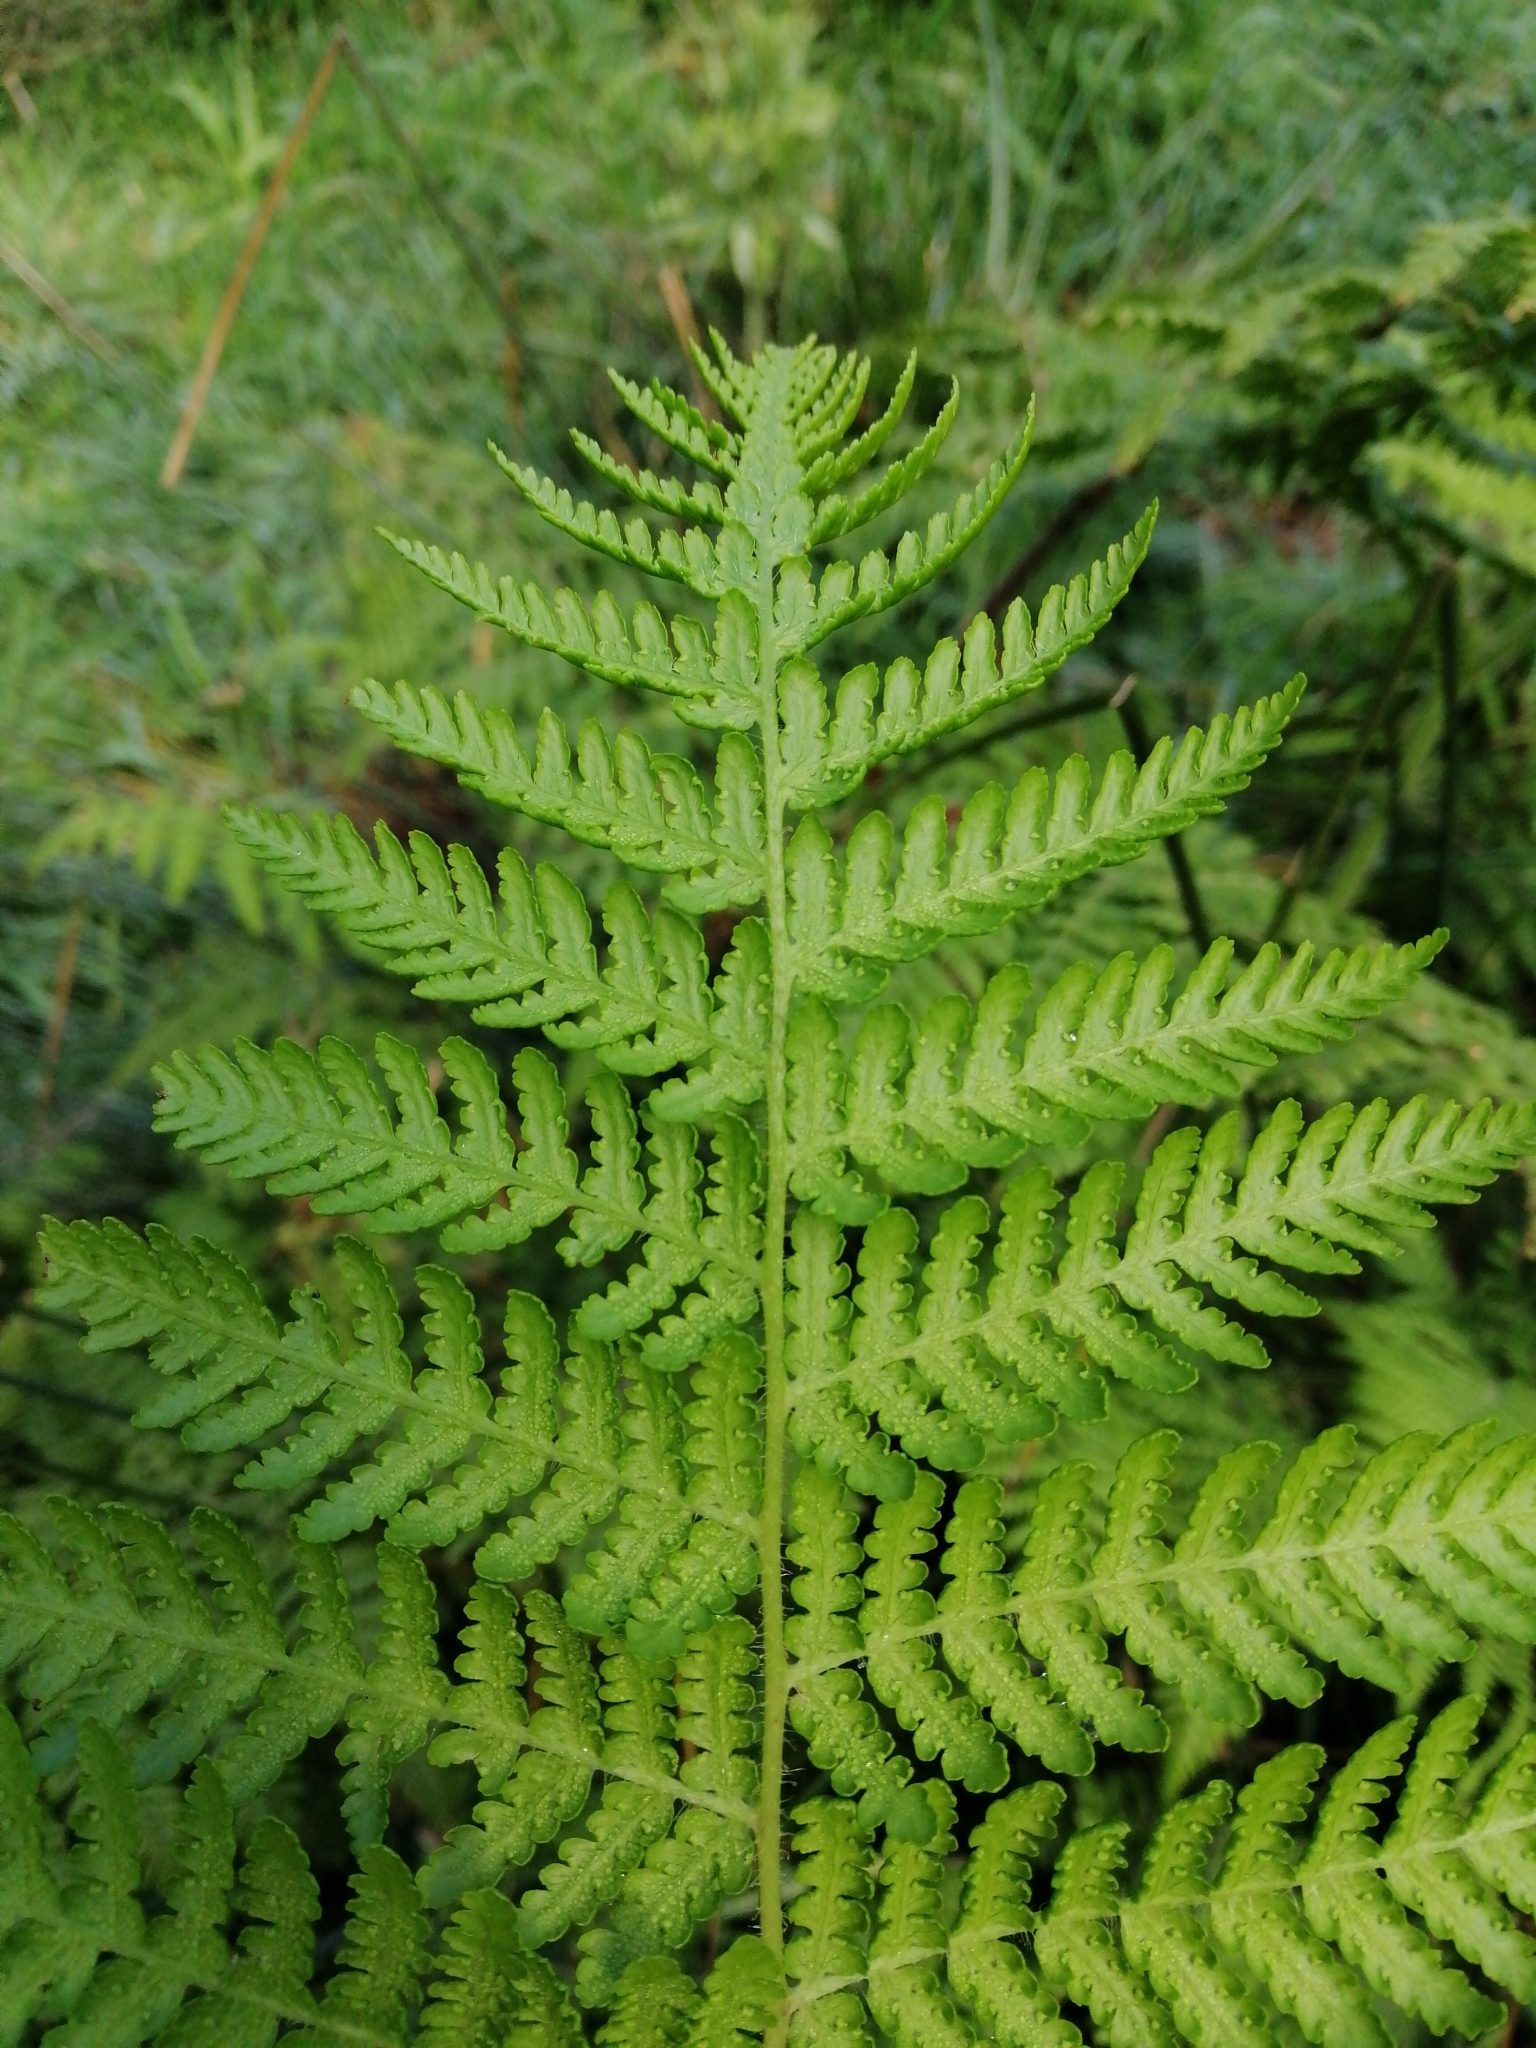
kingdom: Plantae
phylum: Tracheophyta
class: Polypodiopsida
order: Polypodiales
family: Dennstaedtiaceae
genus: Hypolepis
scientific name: Hypolepis dicksonioides
